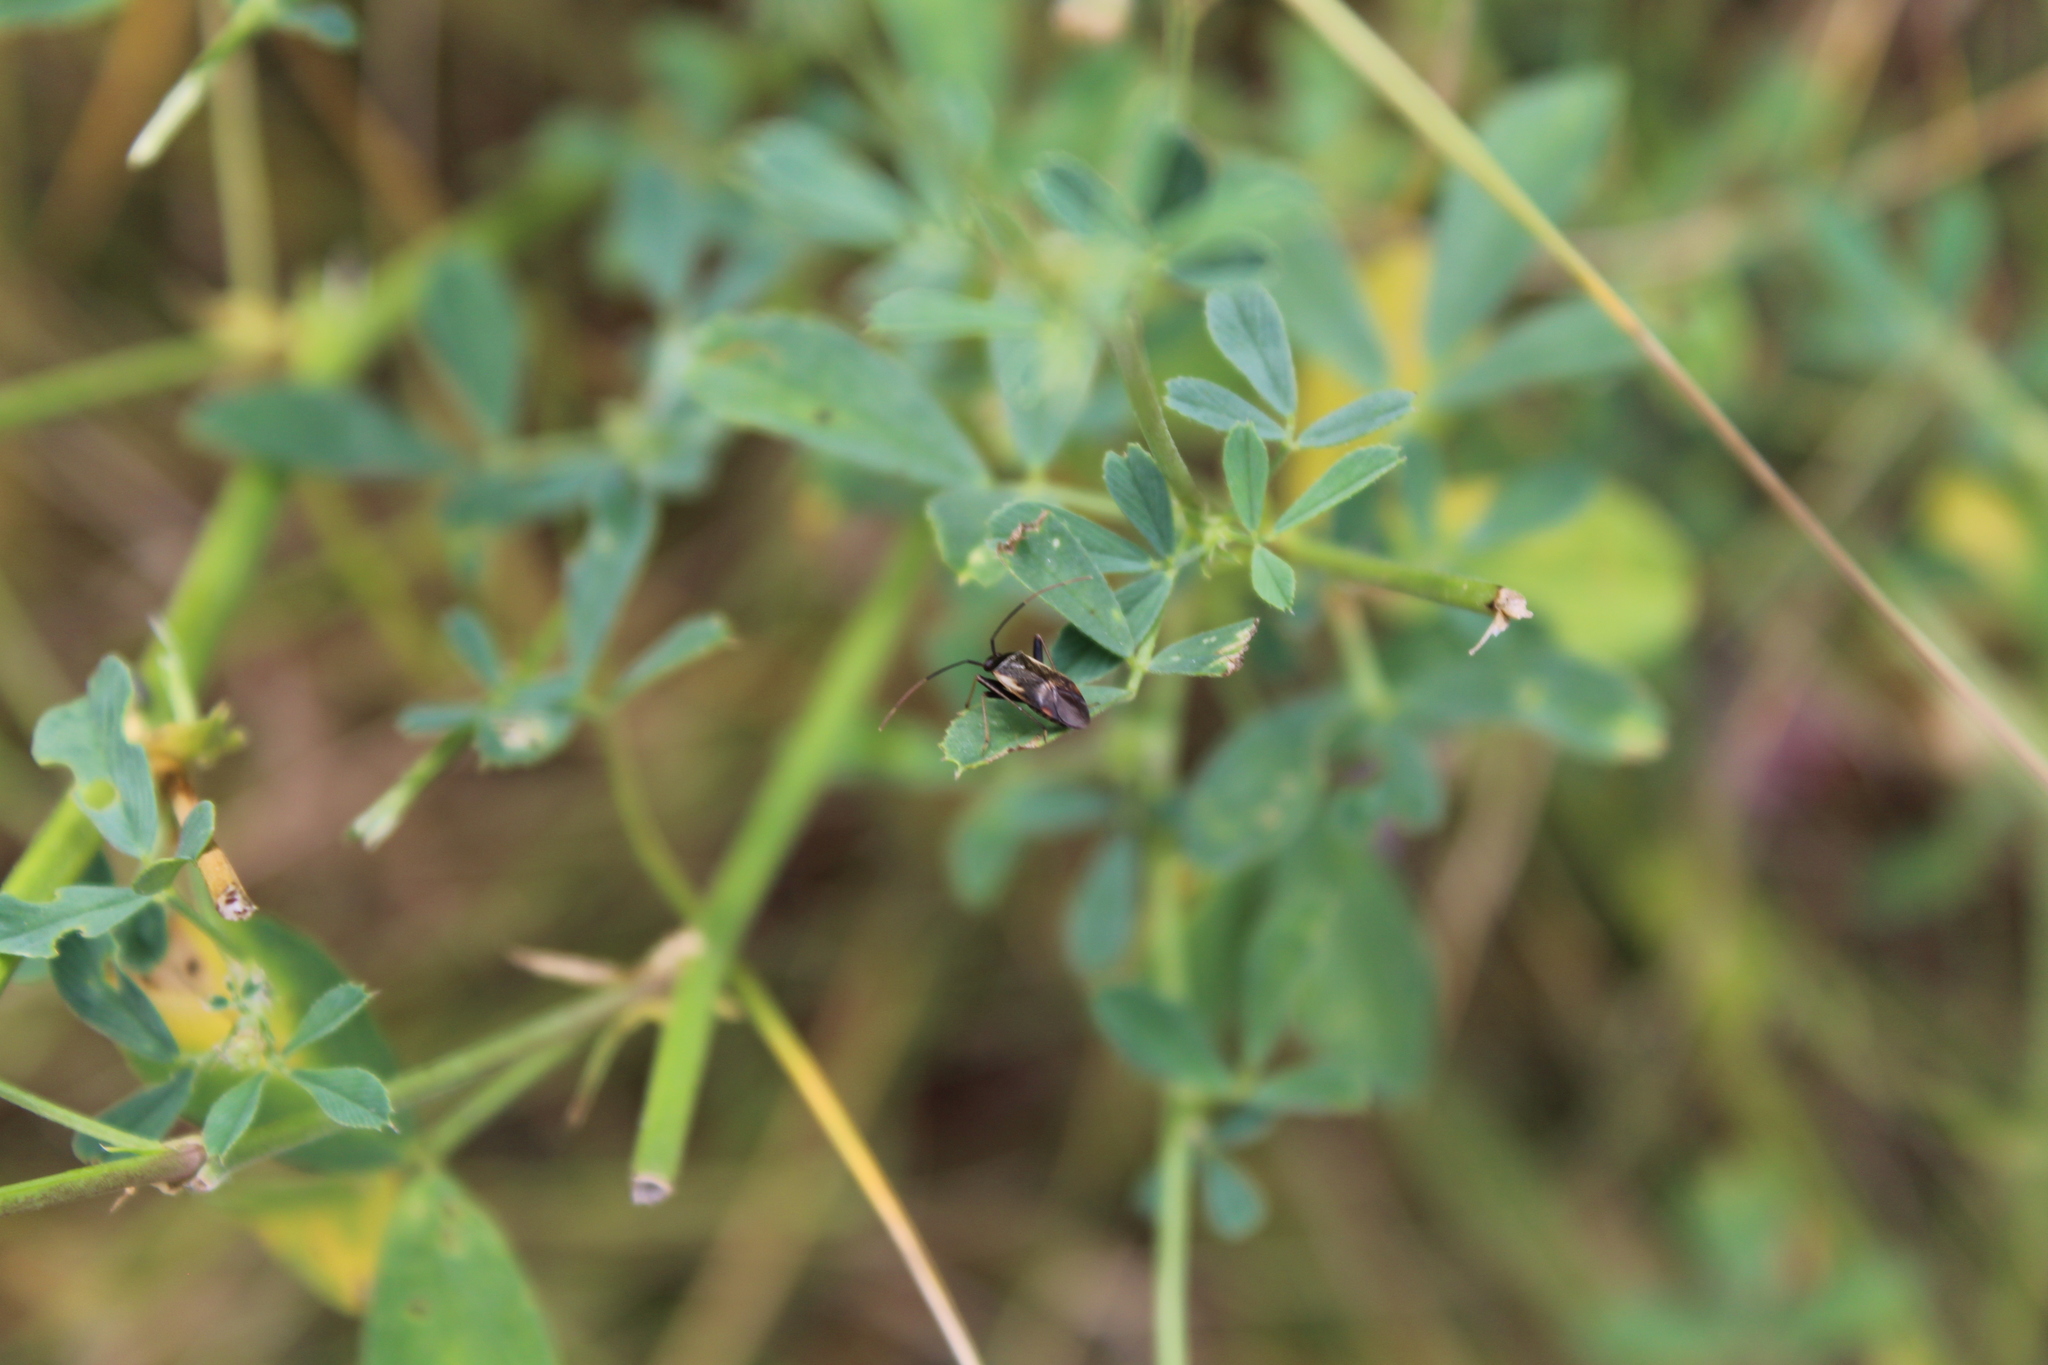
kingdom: Animalia
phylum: Arthropoda
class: Insecta
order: Hemiptera
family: Miridae
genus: Adelphocoris
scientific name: Adelphocoris seticornis
